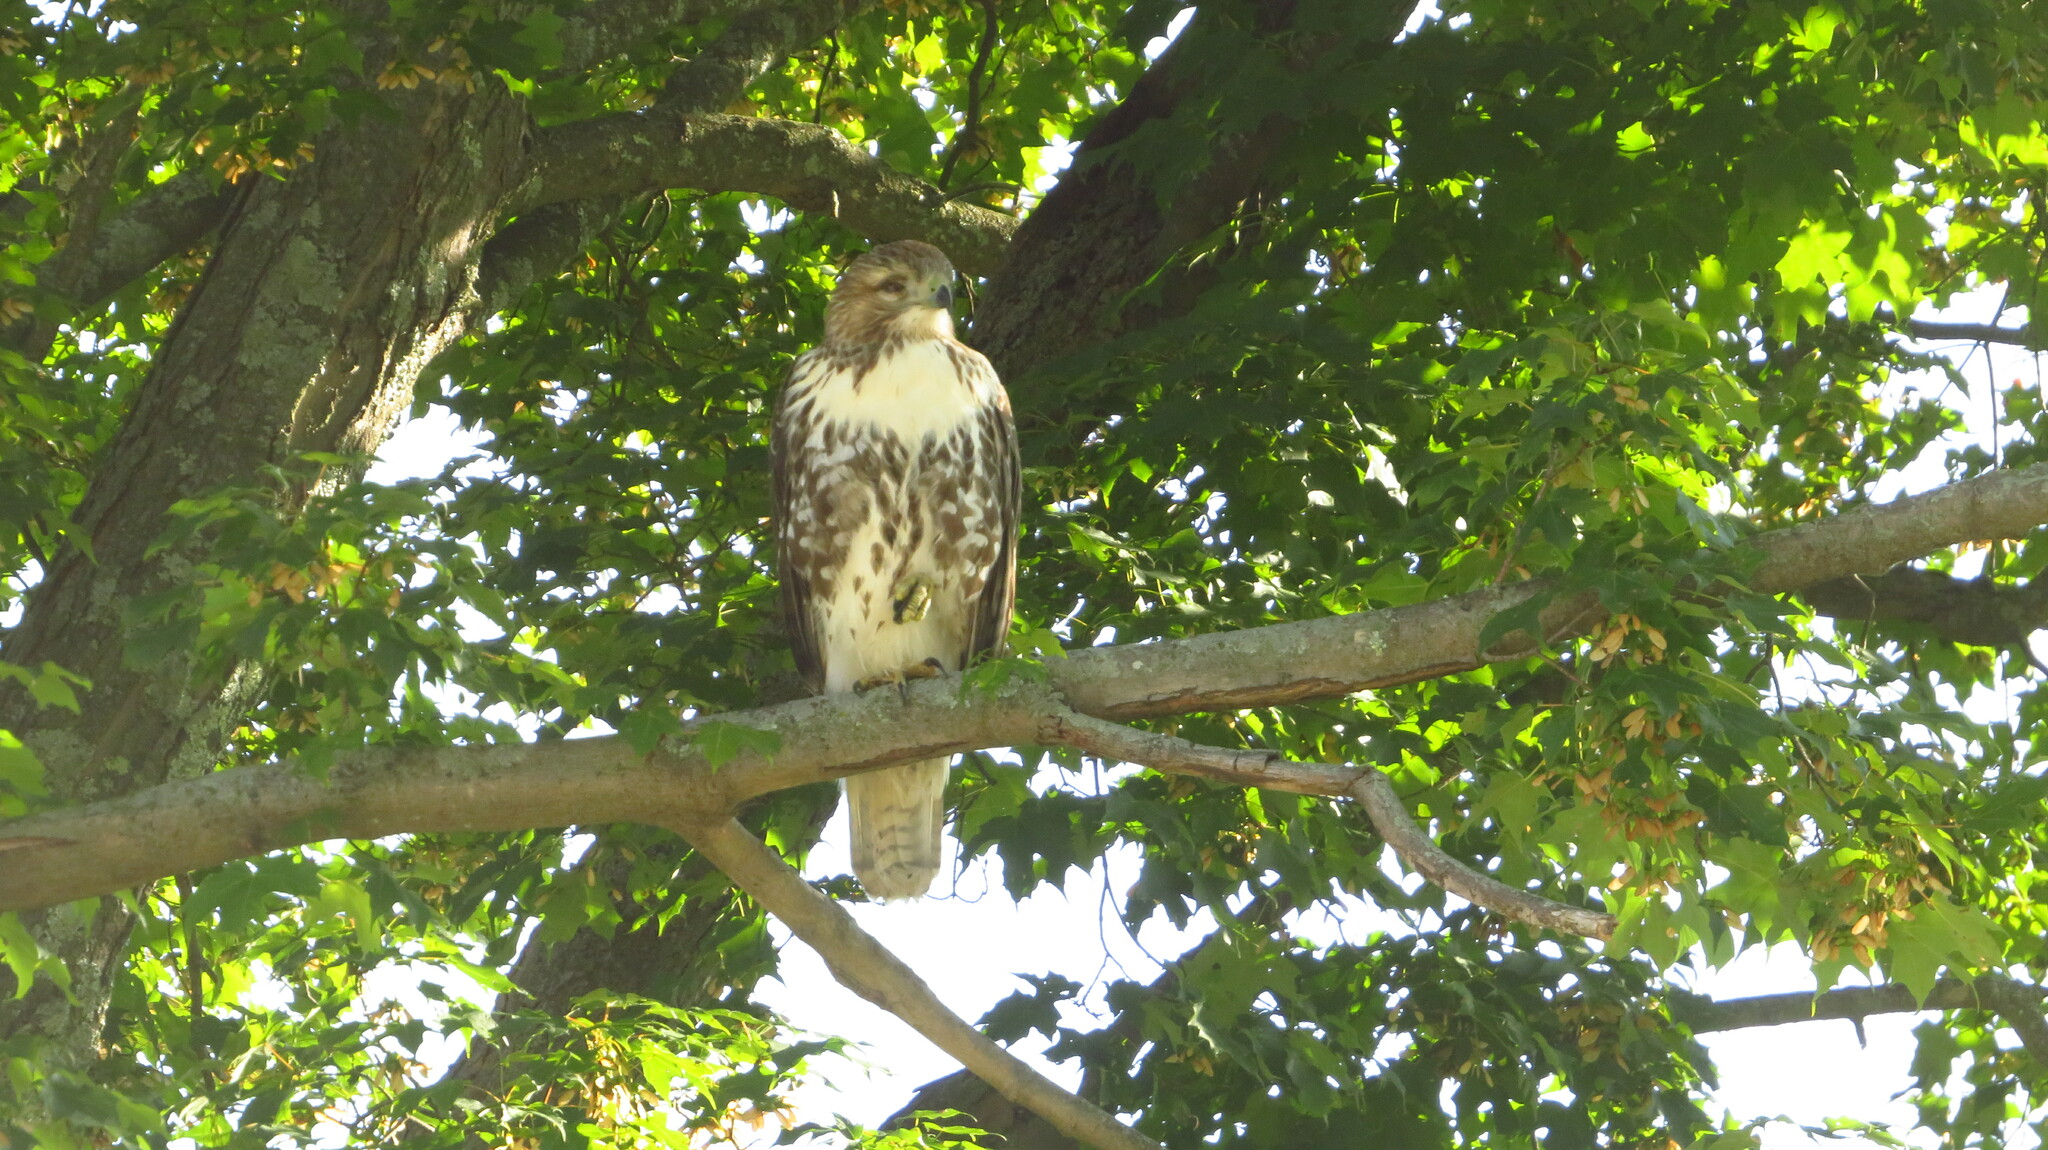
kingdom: Animalia
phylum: Chordata
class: Aves
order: Accipitriformes
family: Accipitridae
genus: Buteo
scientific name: Buteo jamaicensis
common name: Red-tailed hawk
